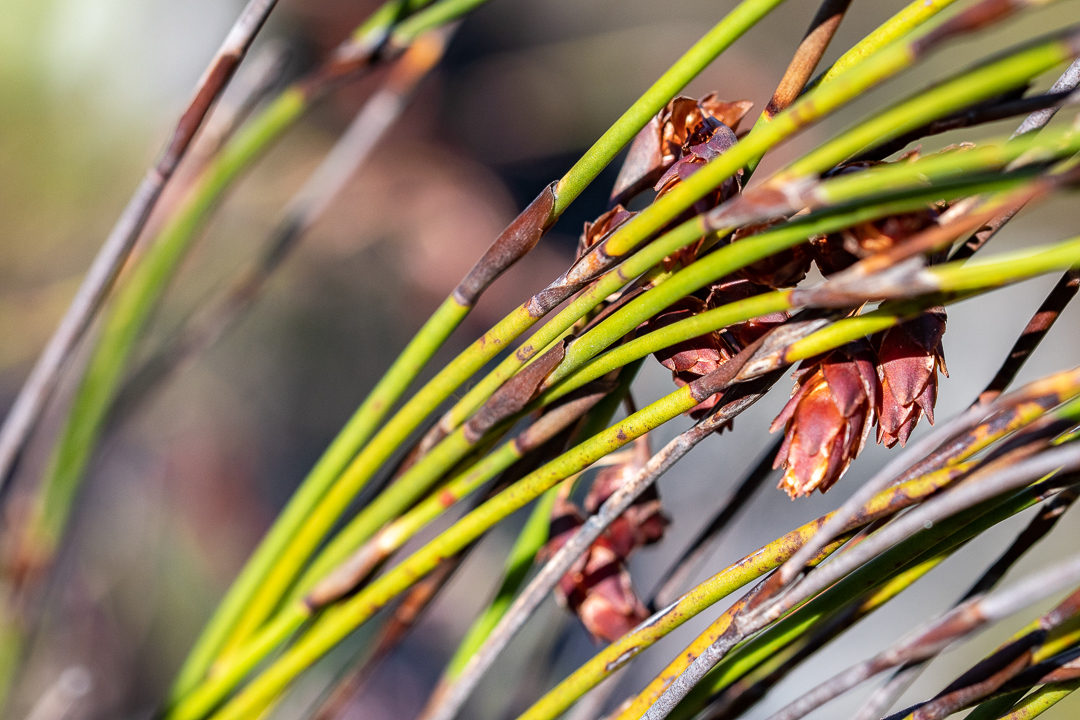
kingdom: Plantae
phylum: Tracheophyta
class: Liliopsida
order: Poales
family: Restionaceae
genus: Restio
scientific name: Restio bifarius
